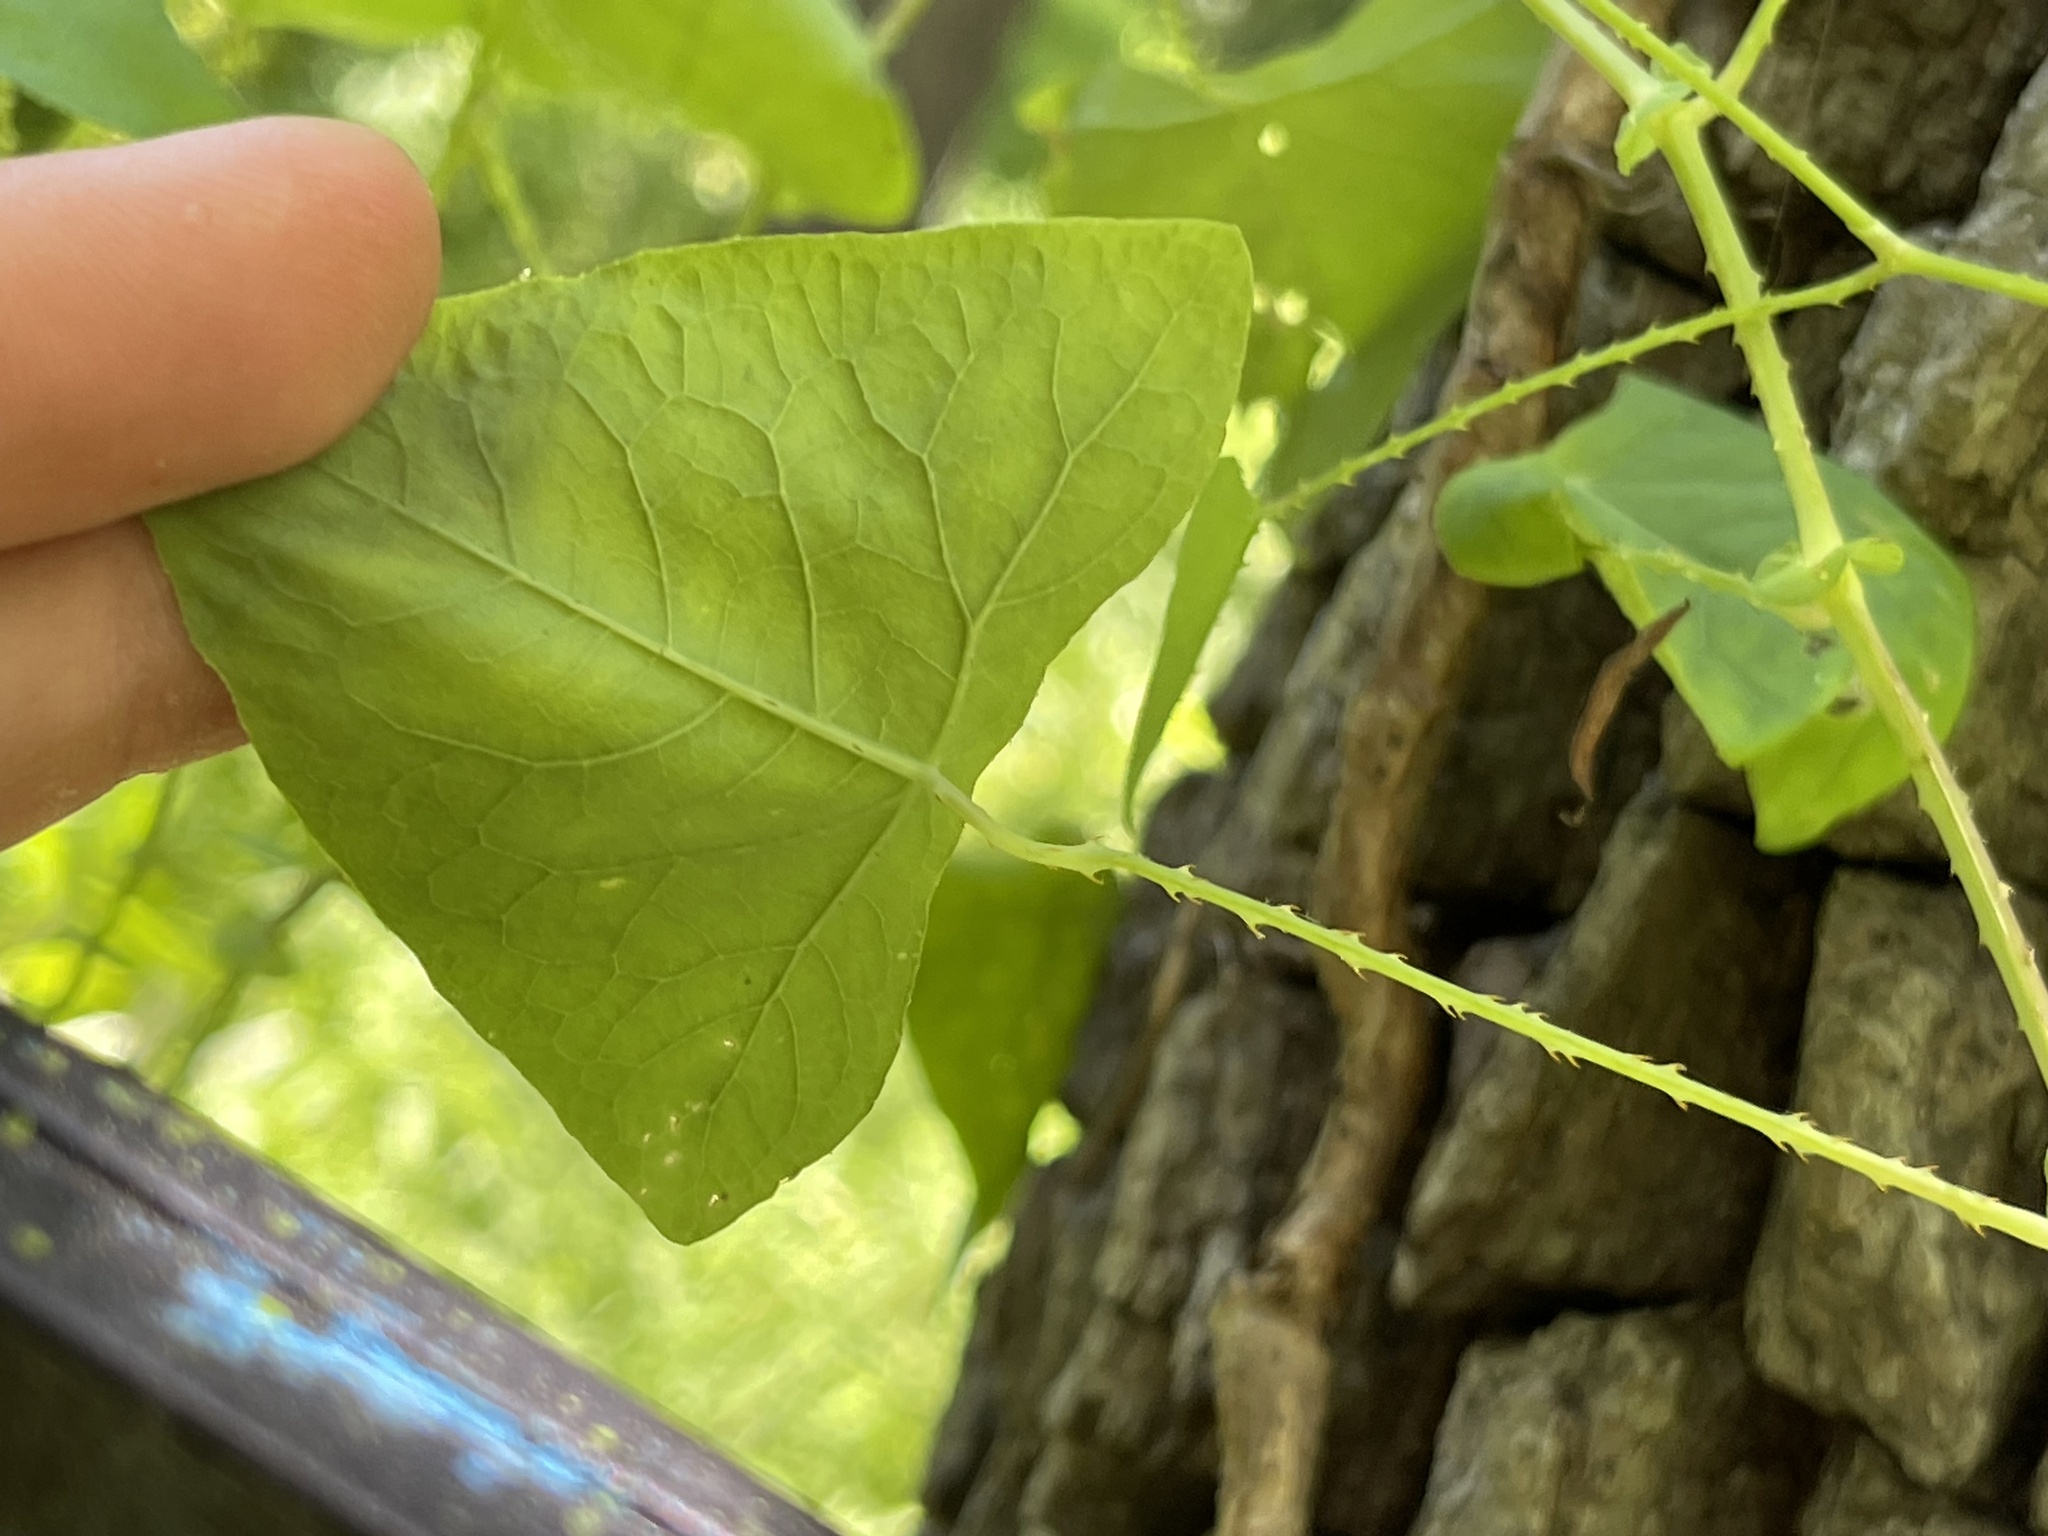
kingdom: Plantae
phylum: Tracheophyta
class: Magnoliopsida
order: Caryophyllales
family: Polygonaceae
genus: Persicaria
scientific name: Persicaria perfoliata
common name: Asiatic tearthumb
